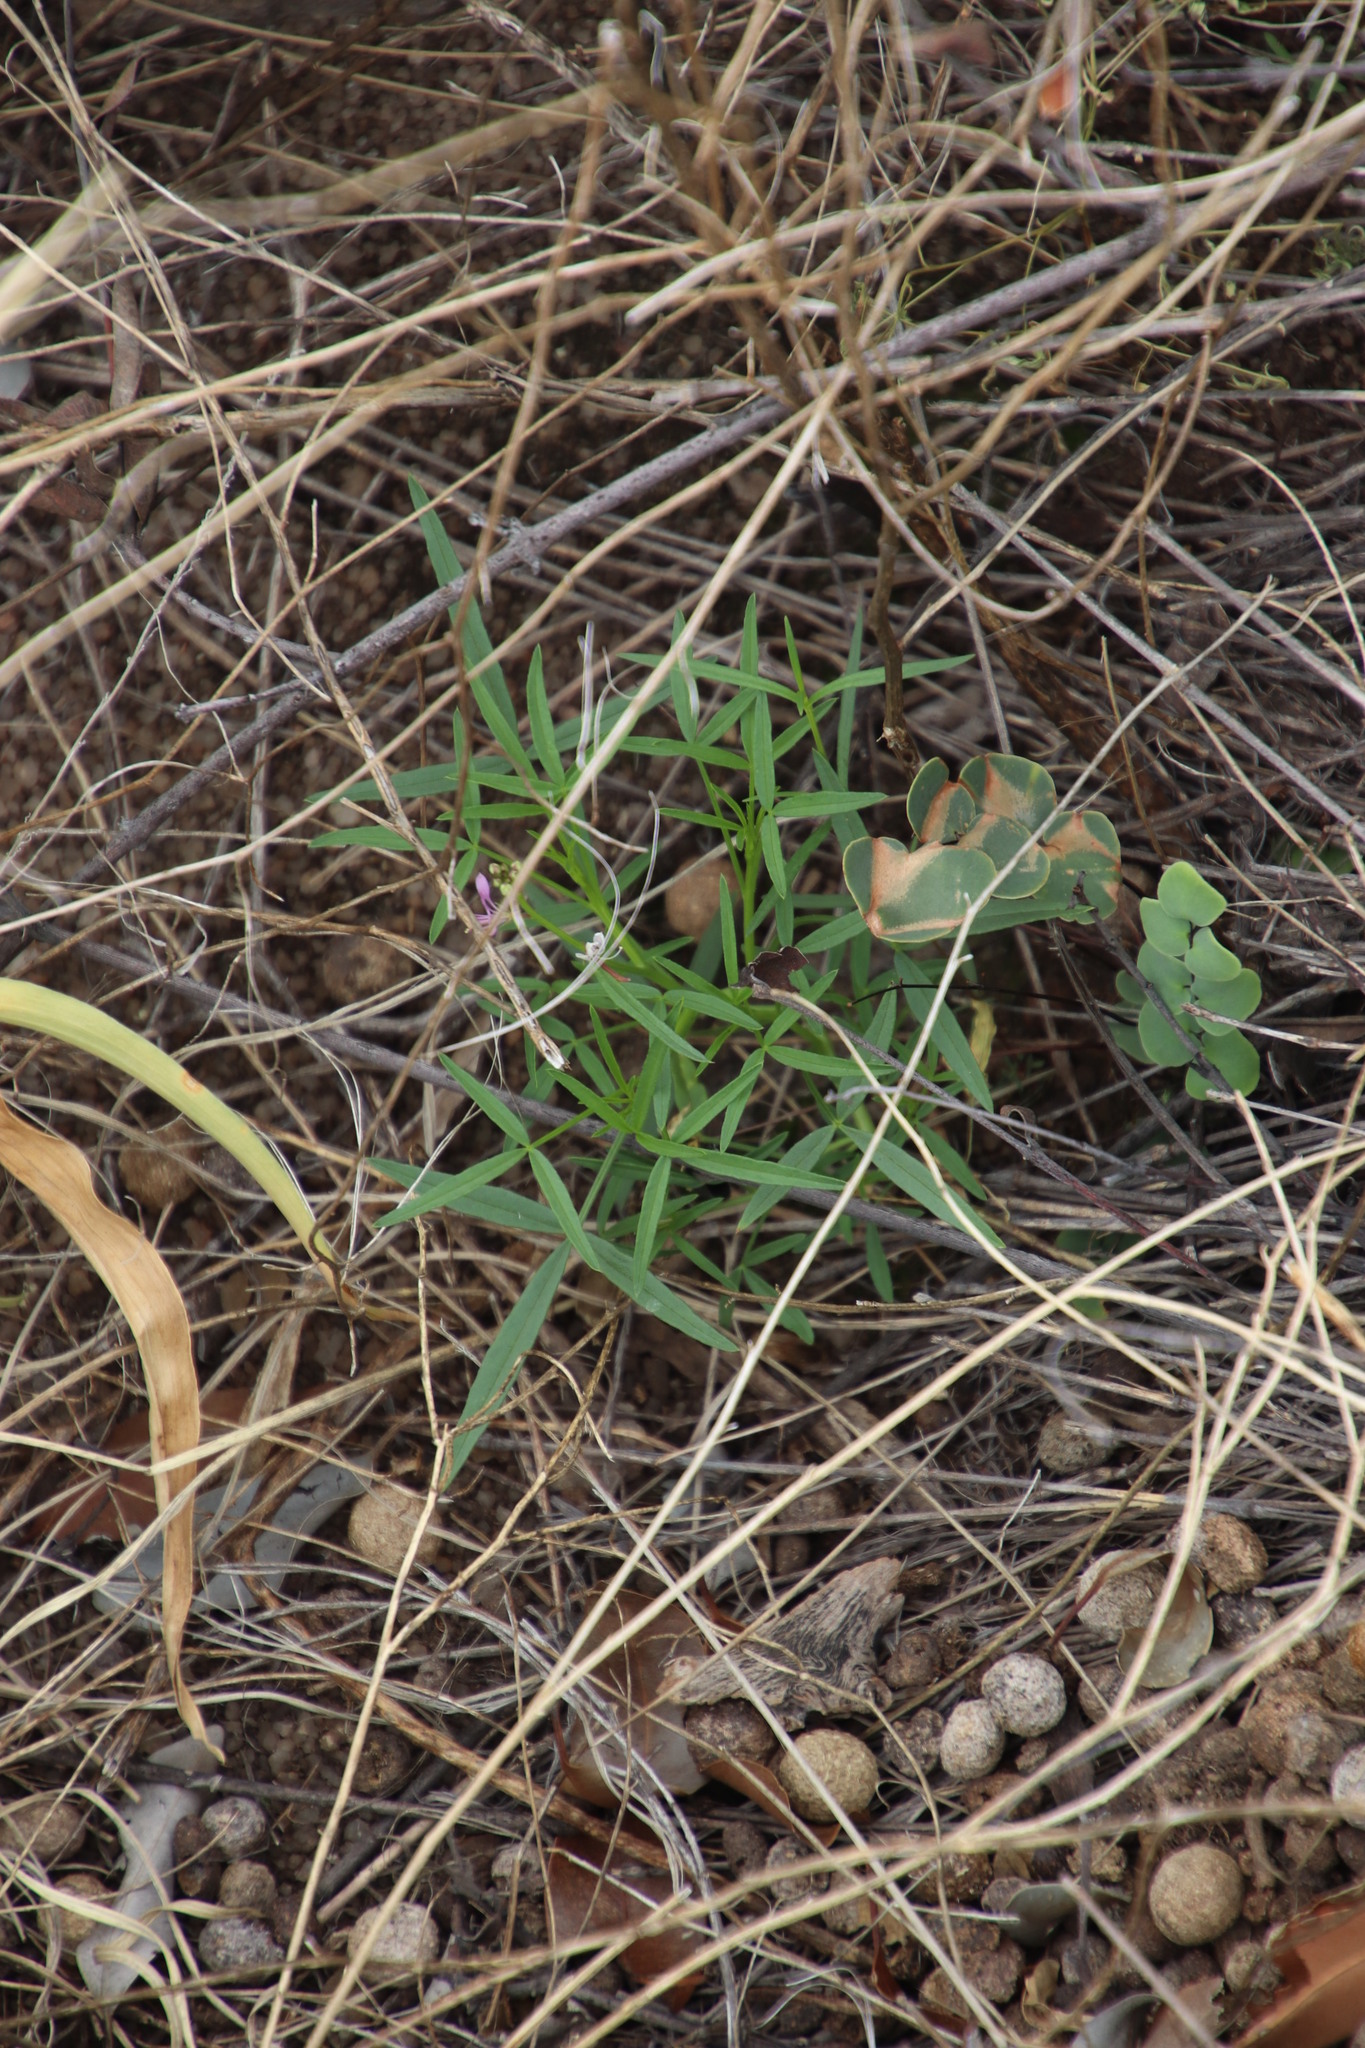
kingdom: Plantae
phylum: Tracheophyta
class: Magnoliopsida
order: Brassicales
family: Cleomaceae
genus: Sieruela
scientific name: Sieruela rubella
